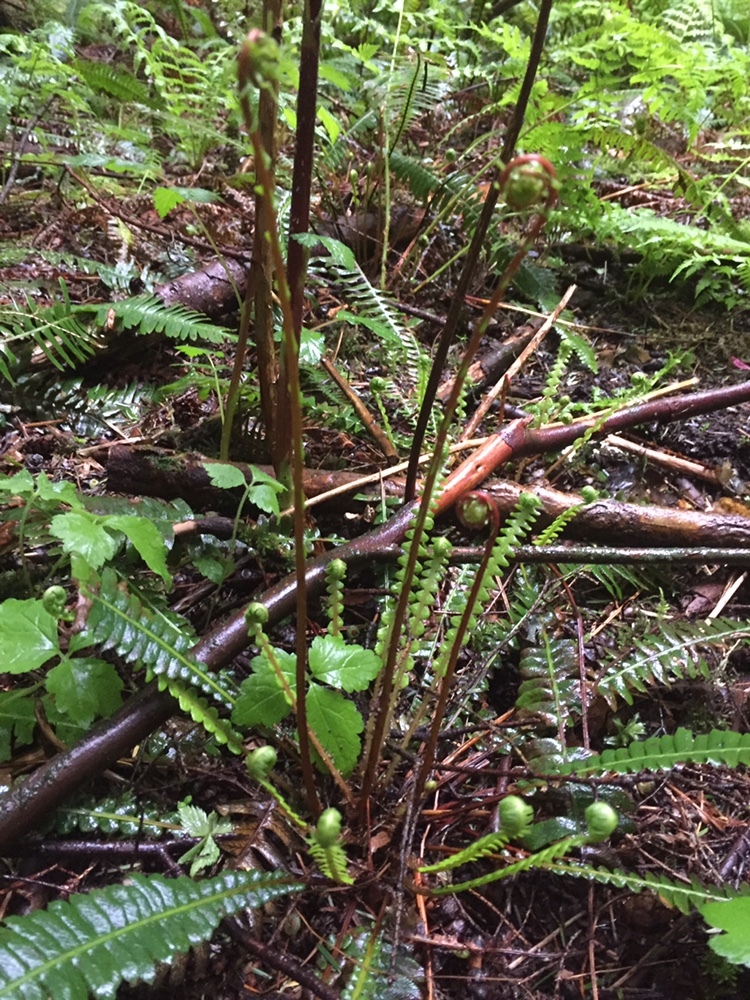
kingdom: Plantae
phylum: Tracheophyta
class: Polypodiopsida
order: Polypodiales
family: Blechnaceae
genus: Struthiopteris
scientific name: Struthiopteris spicant
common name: Deer fern
